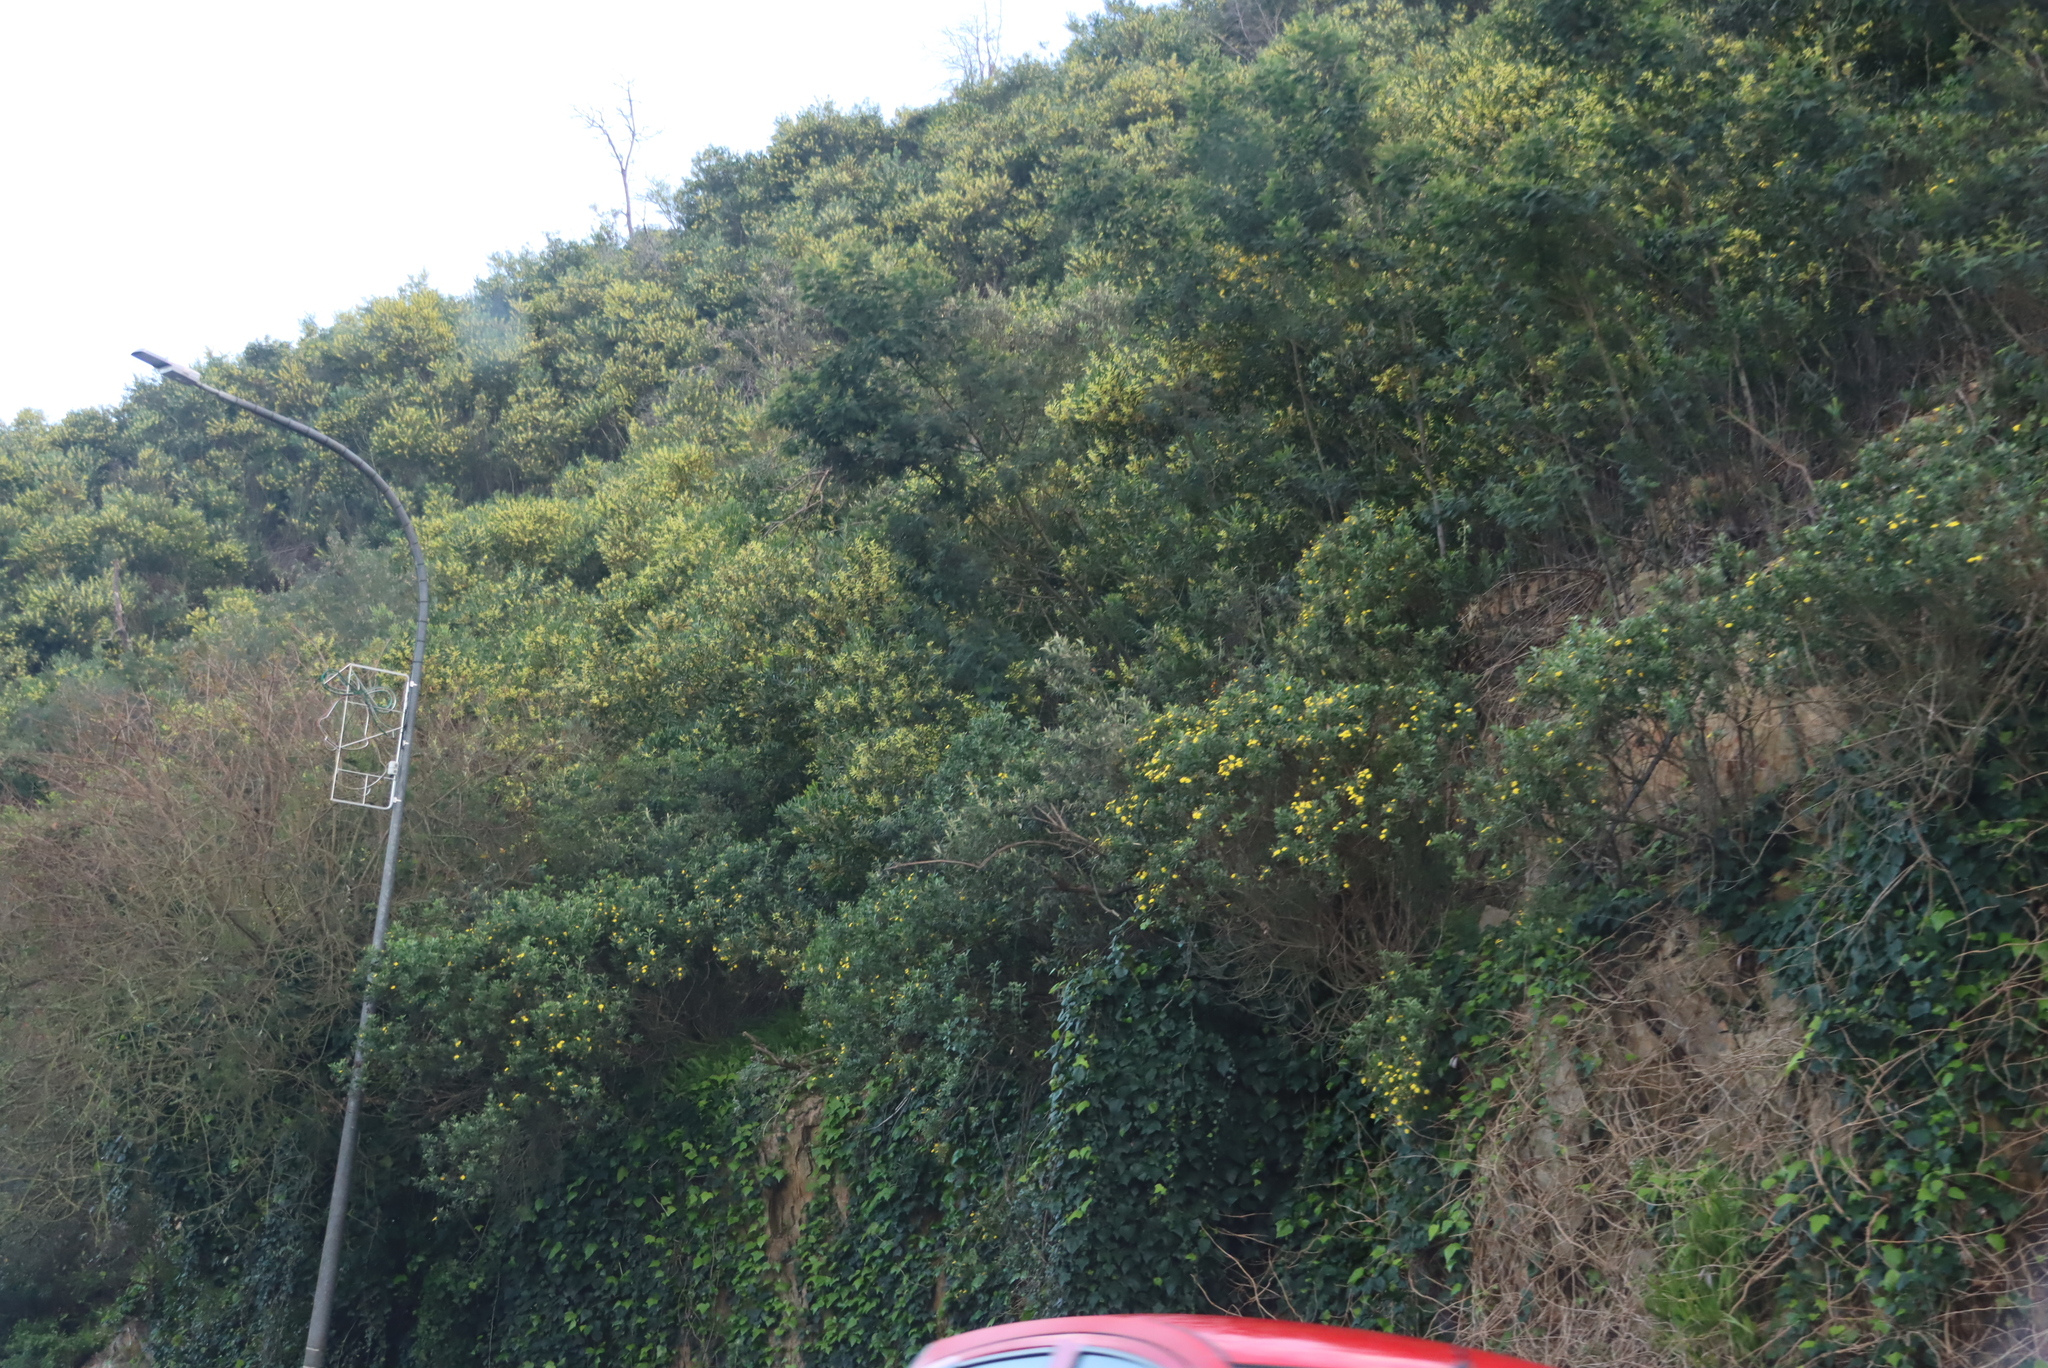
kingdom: Plantae
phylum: Tracheophyta
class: Magnoliopsida
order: Fabales
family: Fabaceae
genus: Acacia
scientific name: Acacia longifolia
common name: Sydney golden wattle
